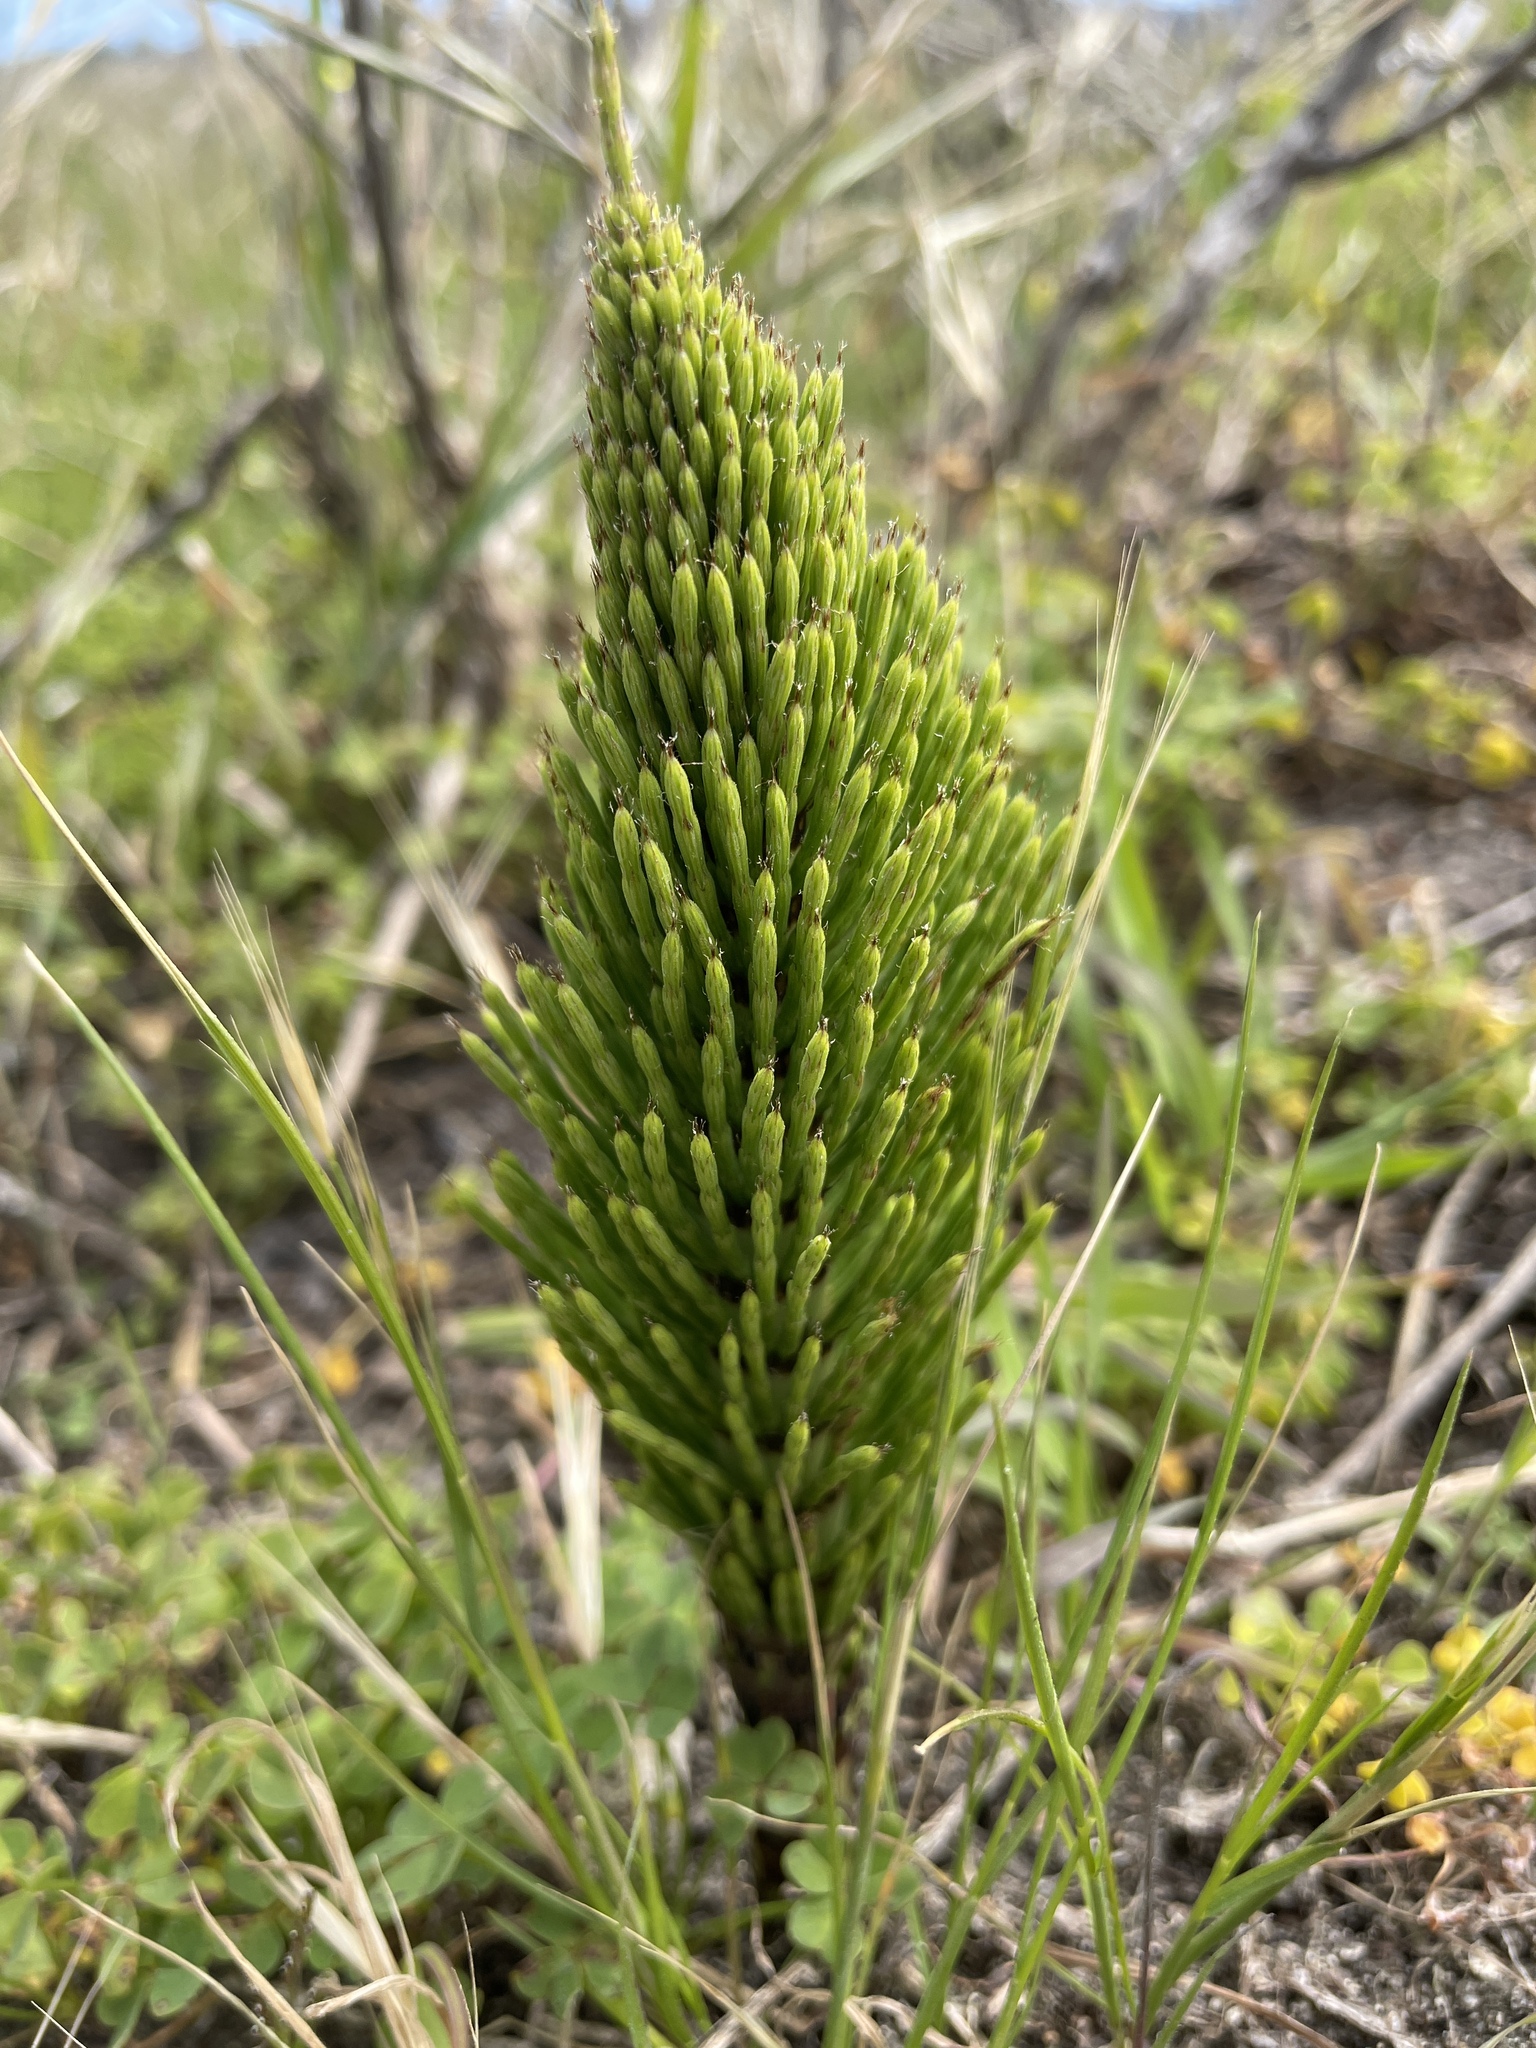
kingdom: Plantae
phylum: Tracheophyta
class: Polypodiopsida
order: Equisetales
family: Equisetaceae
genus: Equisetum
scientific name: Equisetum braunii
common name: Braun's horsetail
